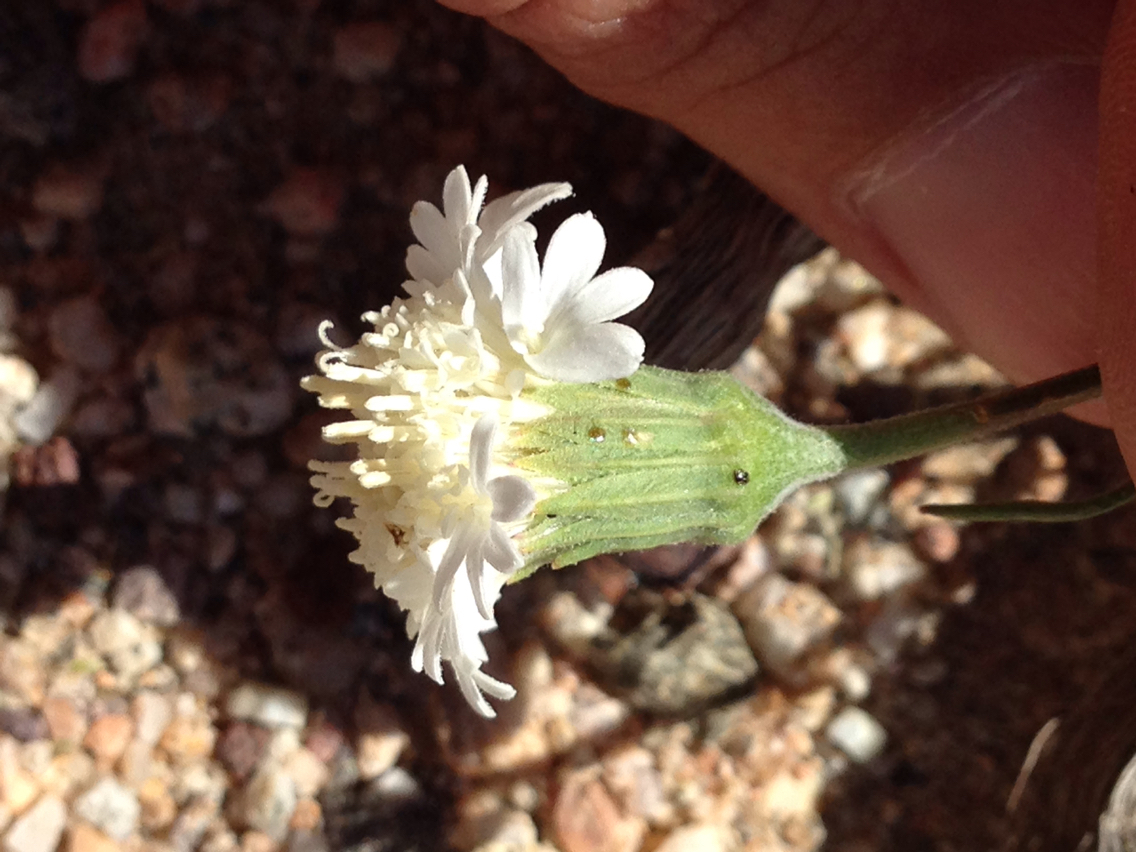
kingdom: Plantae
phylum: Tracheophyta
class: Magnoliopsida
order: Asterales
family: Asteraceae
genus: Chaenactis
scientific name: Chaenactis fremontii
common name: Fremont pincushion
